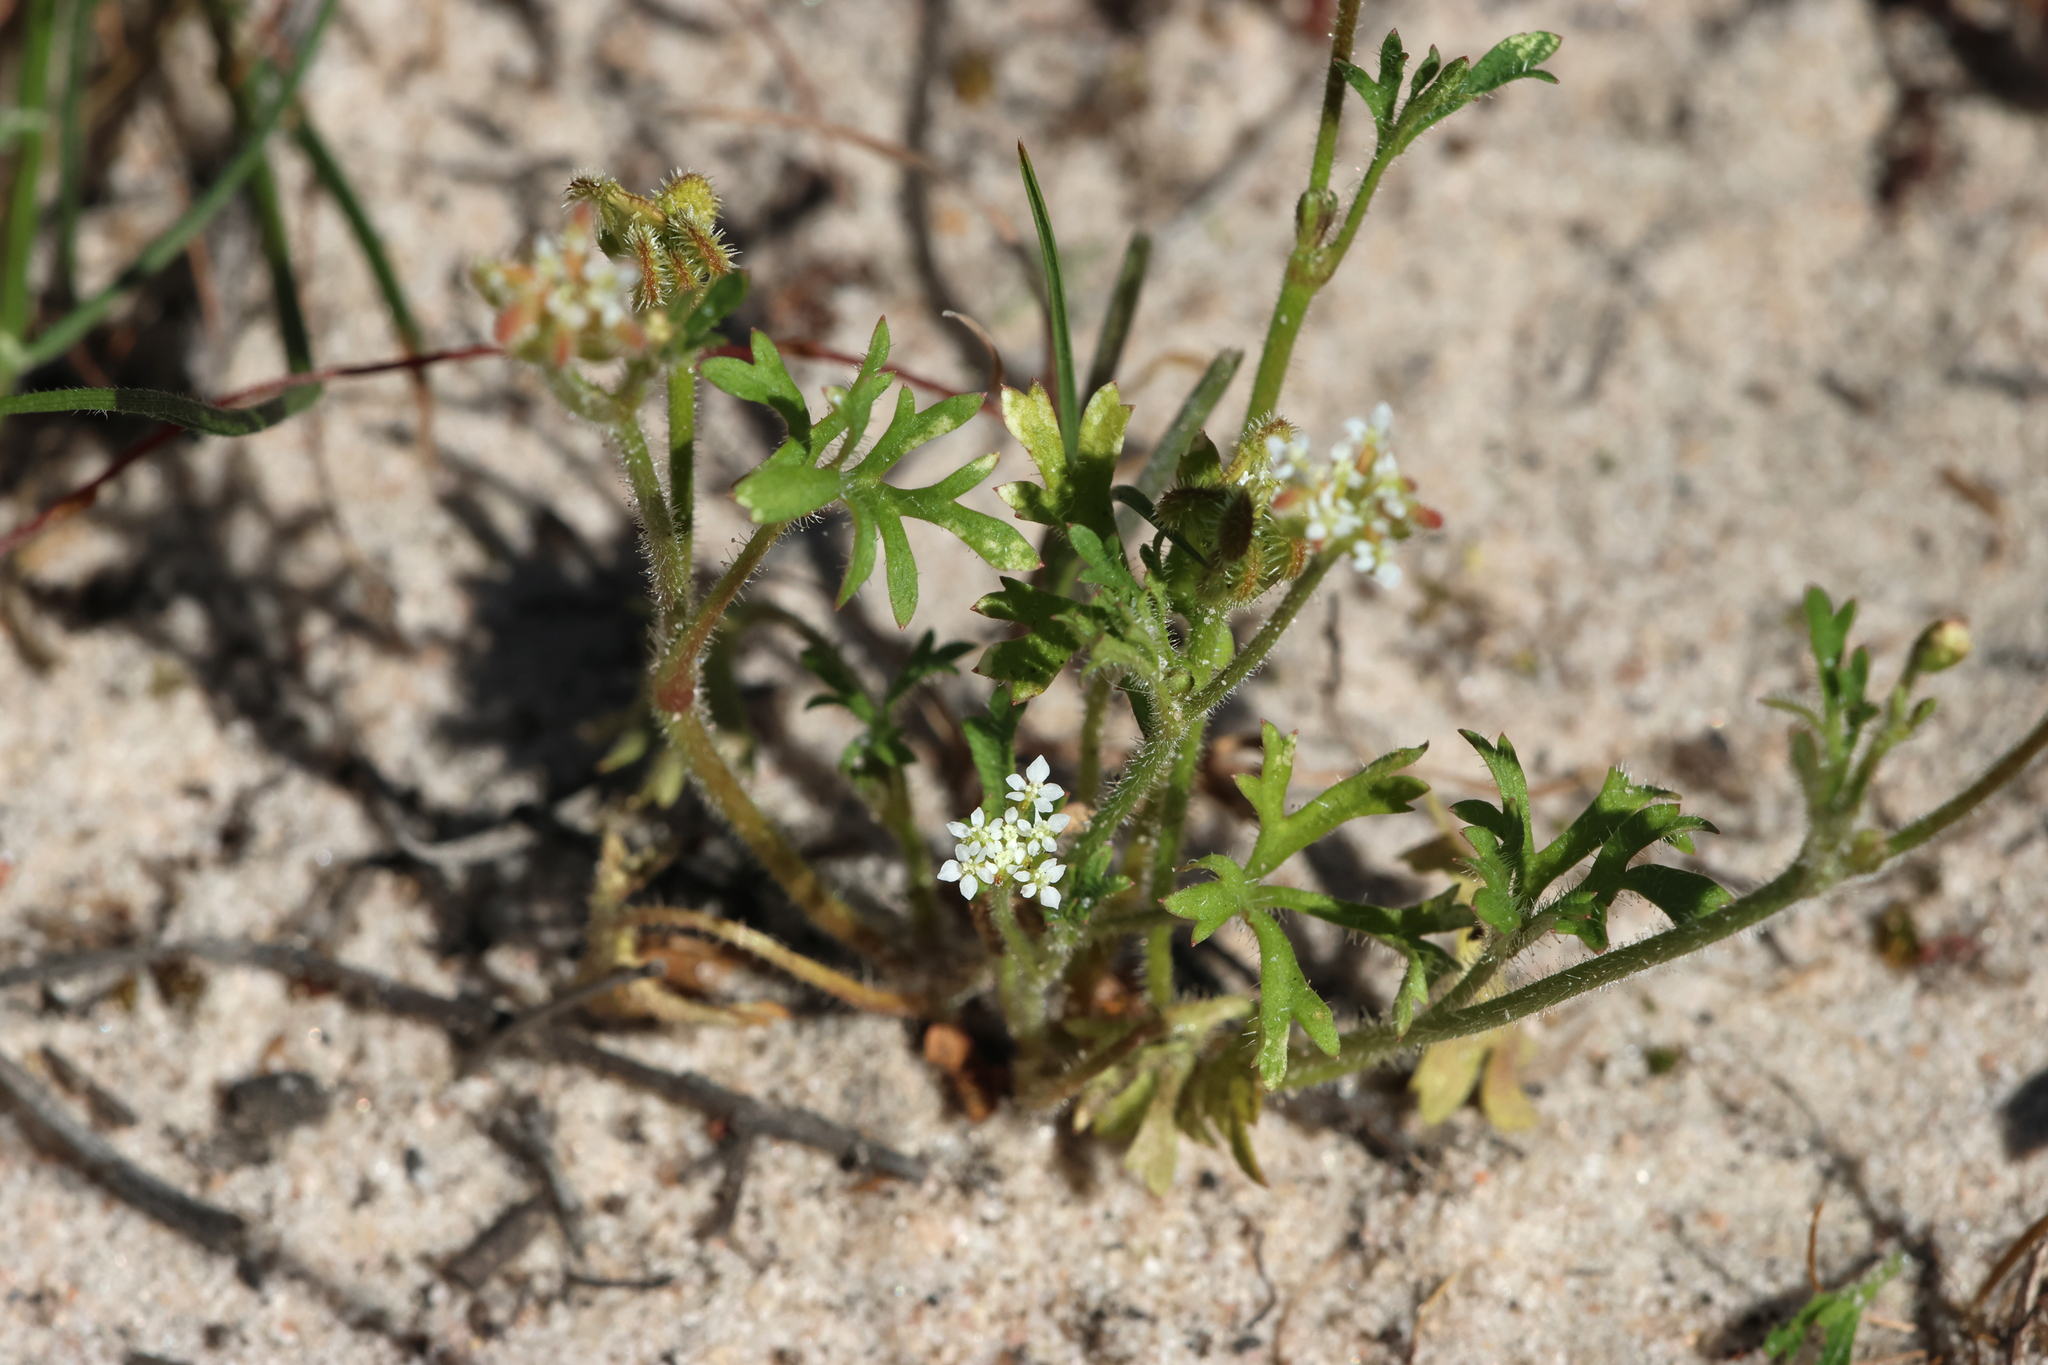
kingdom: Plantae
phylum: Tracheophyta
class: Magnoliopsida
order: Apiales
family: Araliaceae
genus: Trachymene
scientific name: Trachymene pilosa
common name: Dwarf trachymene
